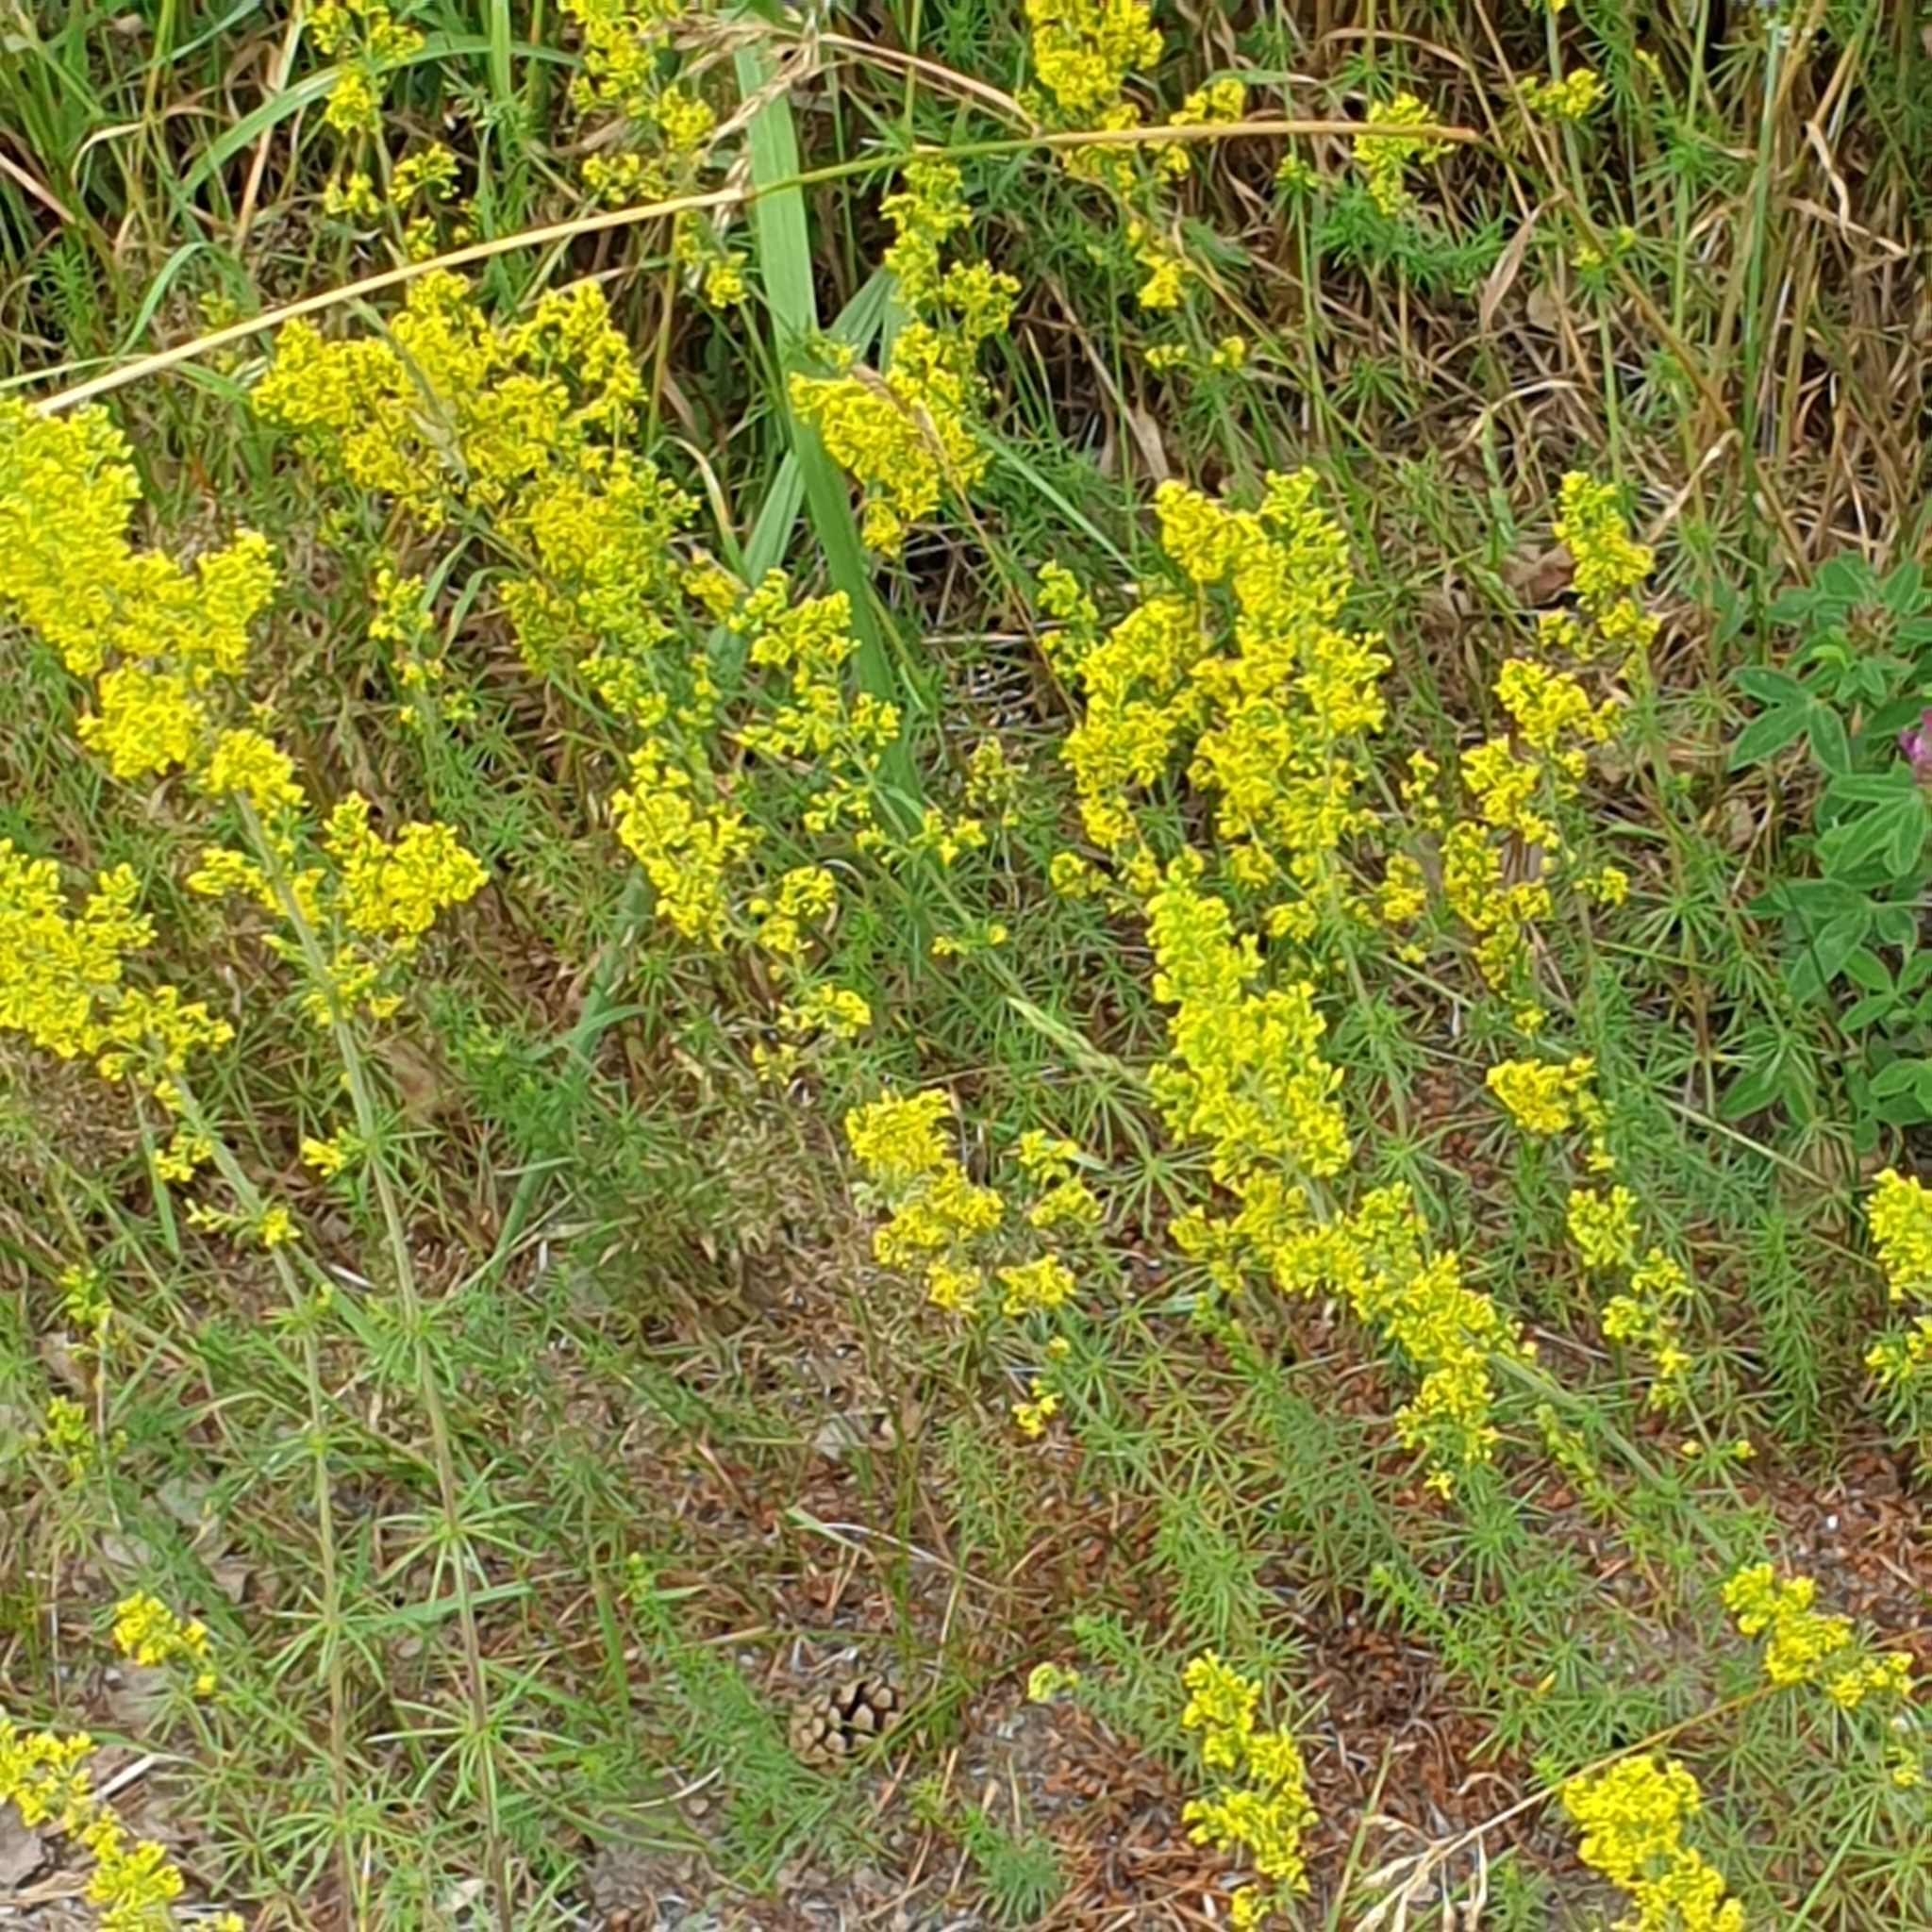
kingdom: Plantae
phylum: Tracheophyta
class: Magnoliopsida
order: Gentianales
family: Rubiaceae
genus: Galium
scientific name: Galium verum
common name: Lady's bedstraw
